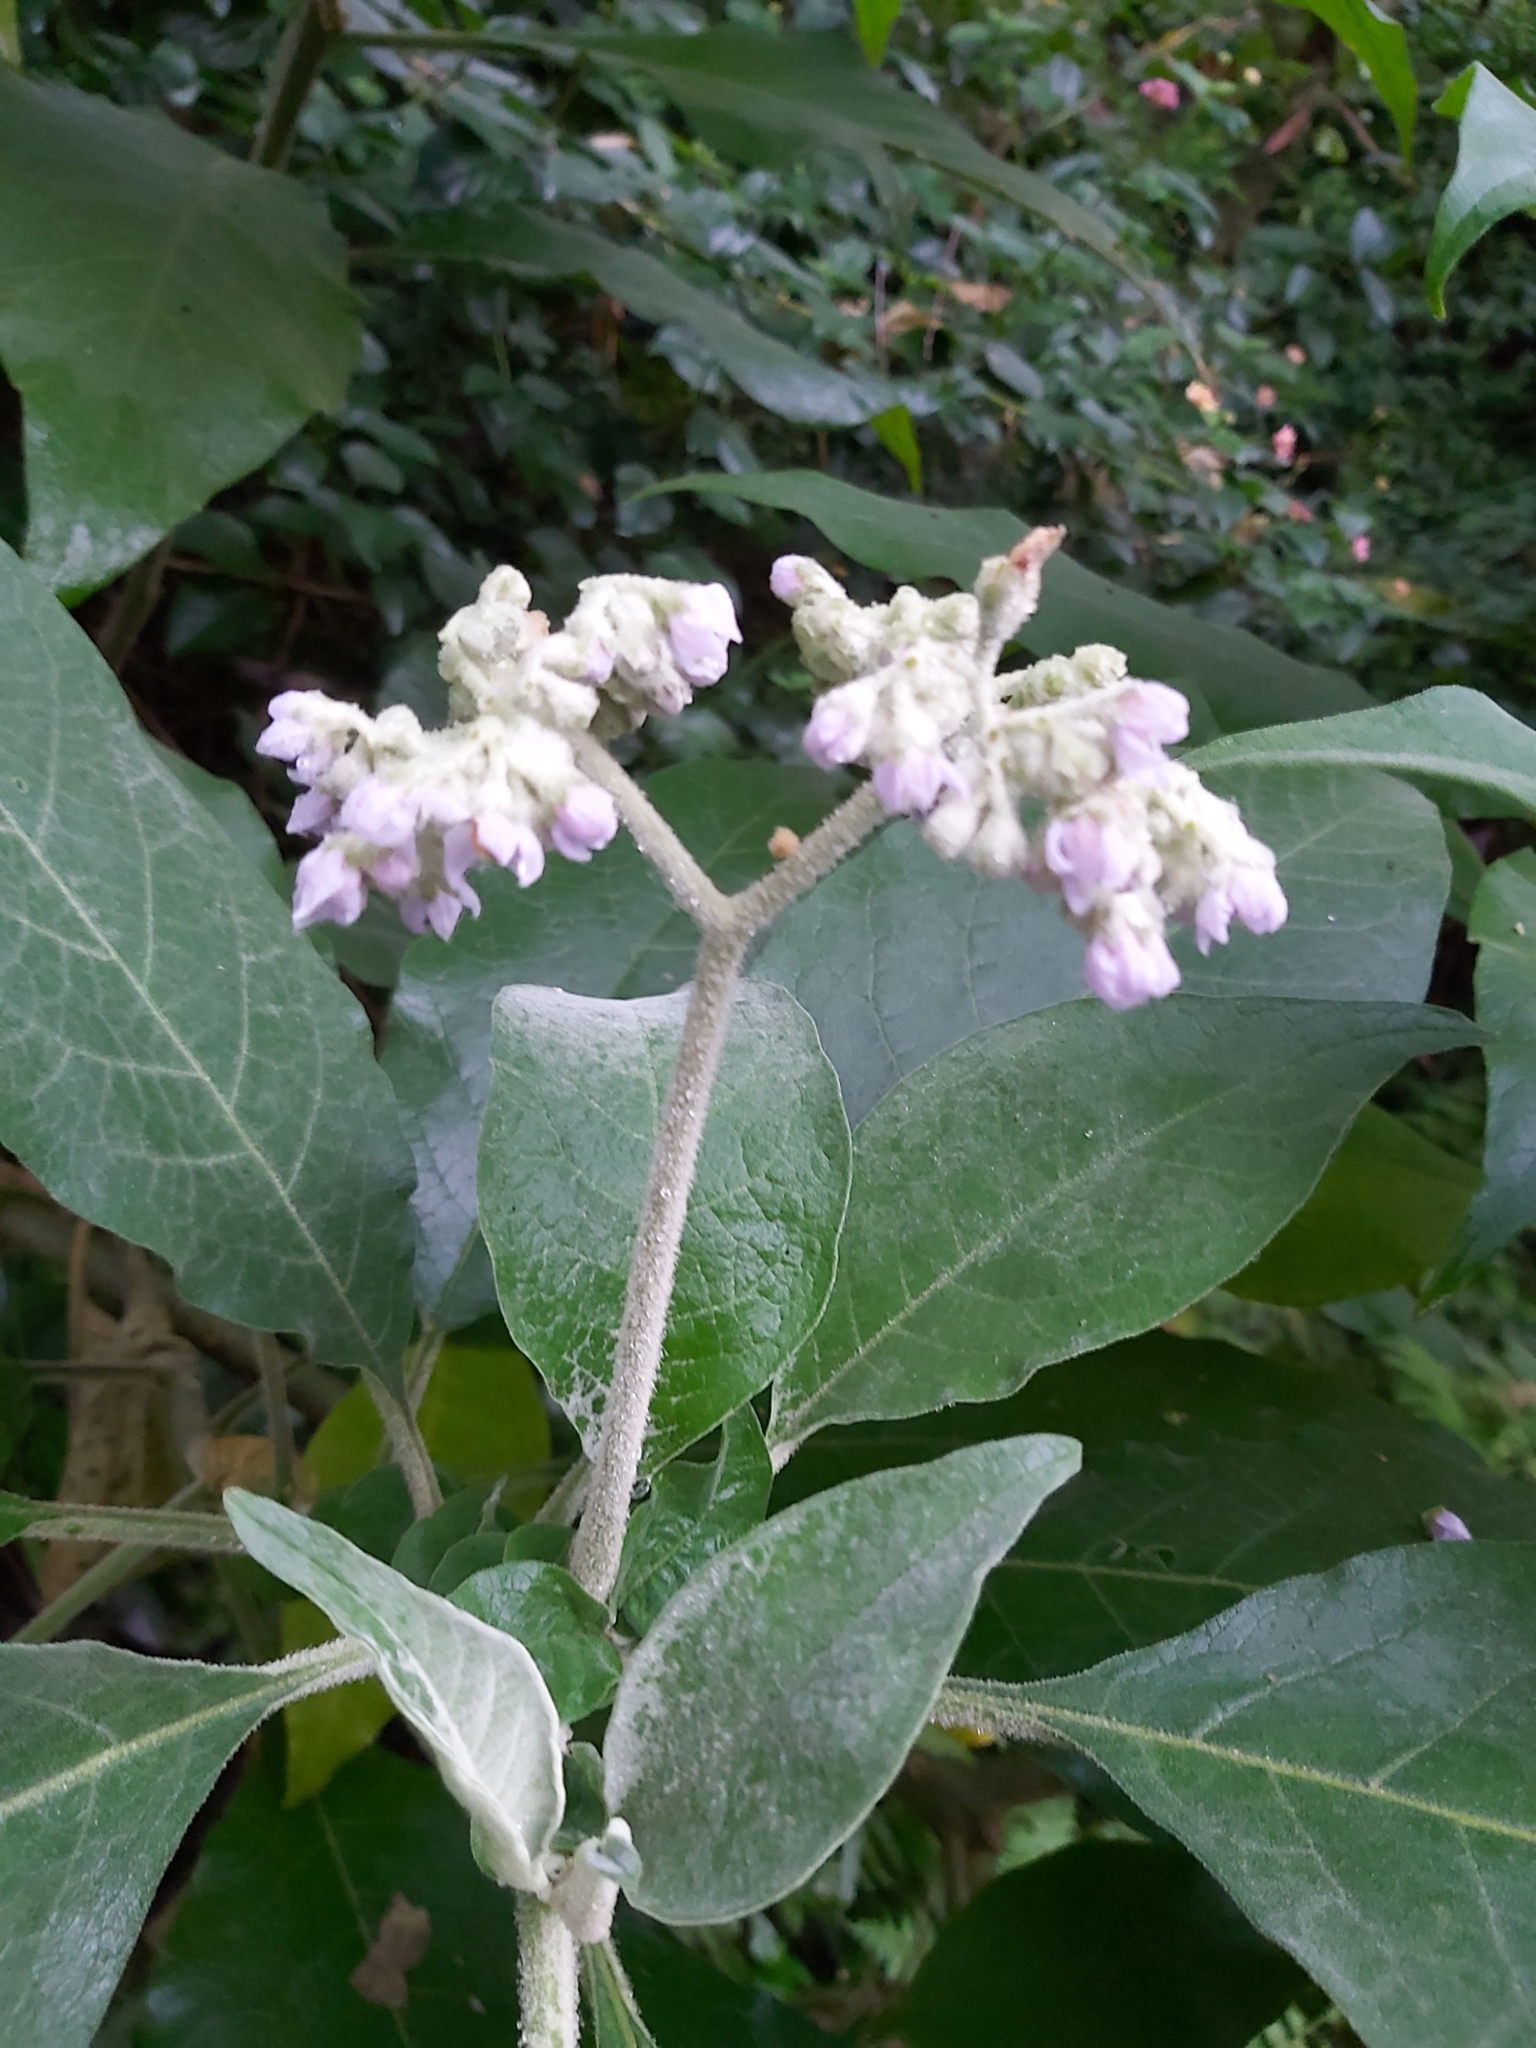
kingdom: Plantae
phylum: Tracheophyta
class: Magnoliopsida
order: Solanales
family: Solanaceae
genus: Solanum
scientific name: Solanum mauritianum
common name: Earleaf nightshade
